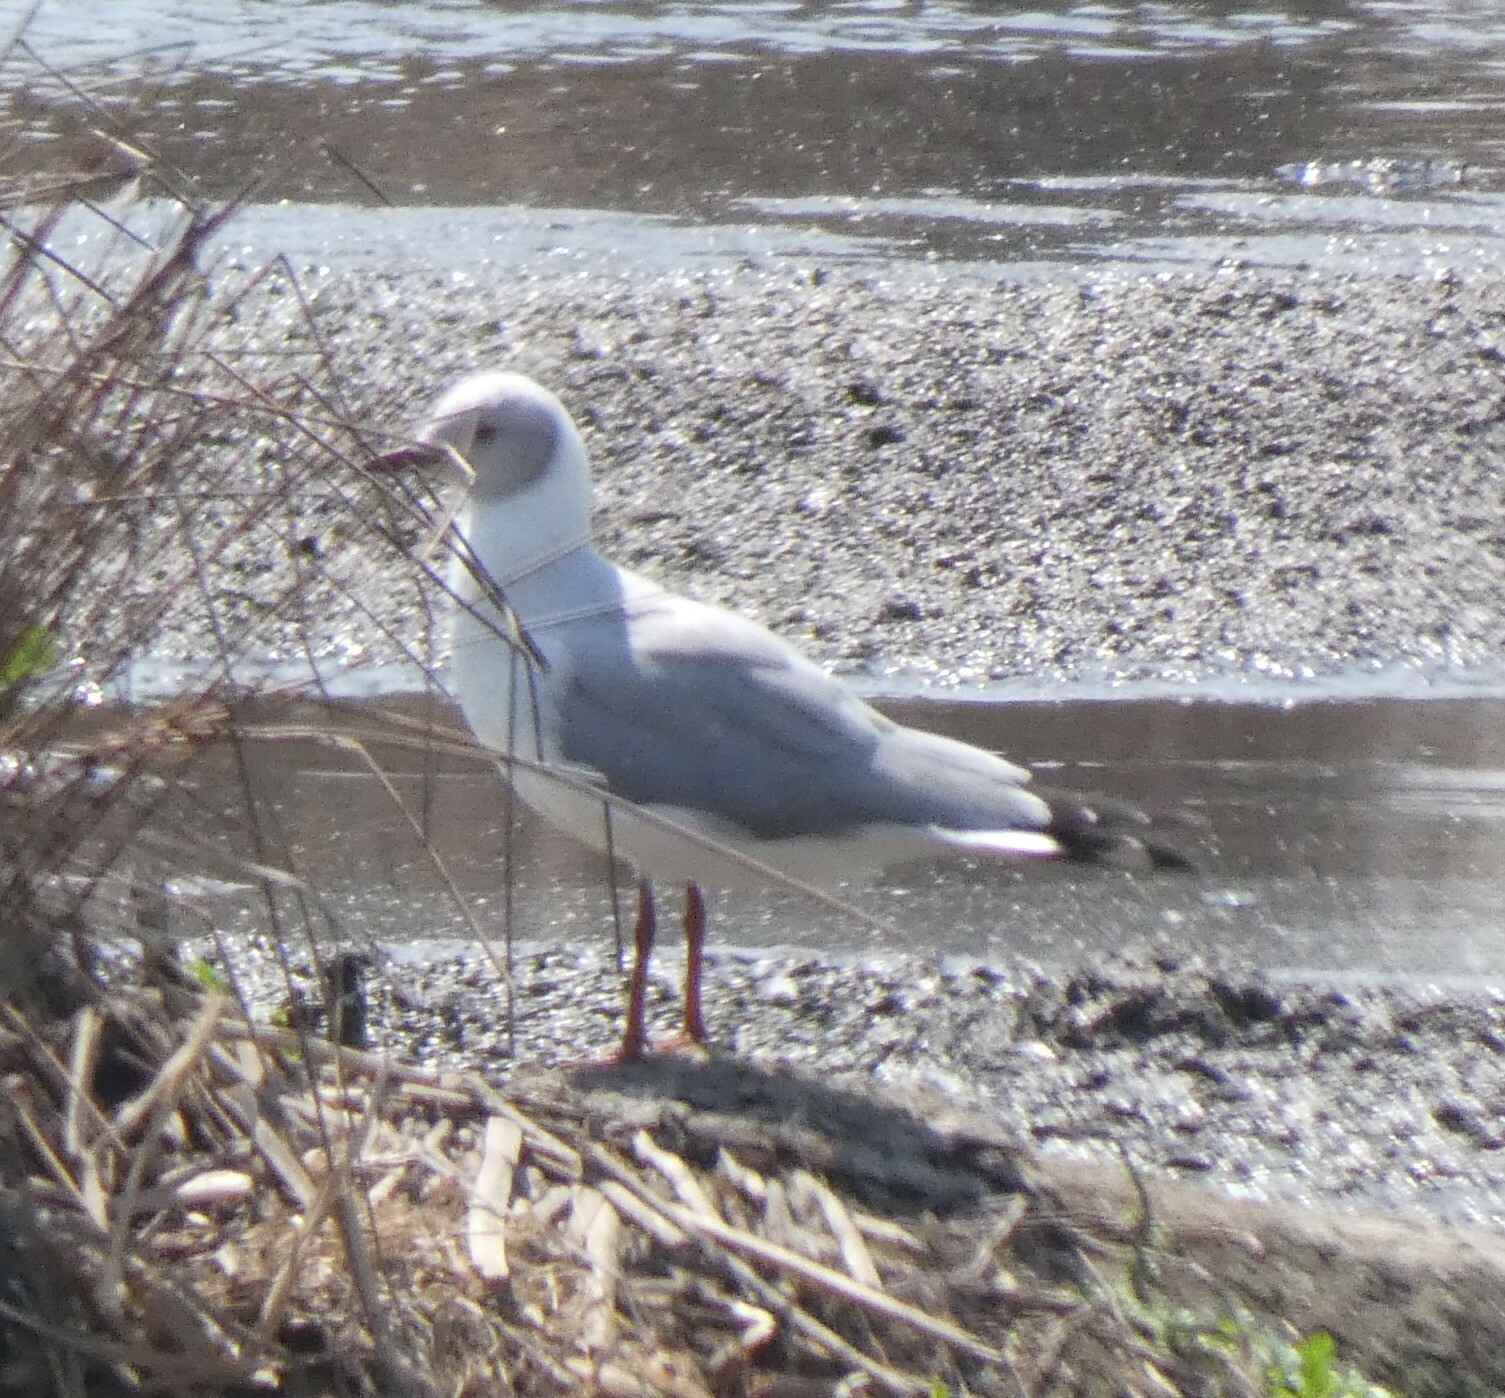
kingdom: Animalia
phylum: Chordata
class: Aves
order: Charadriiformes
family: Laridae
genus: Chroicocephalus
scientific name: Chroicocephalus cirrocephalus
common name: Grey-headed gull
